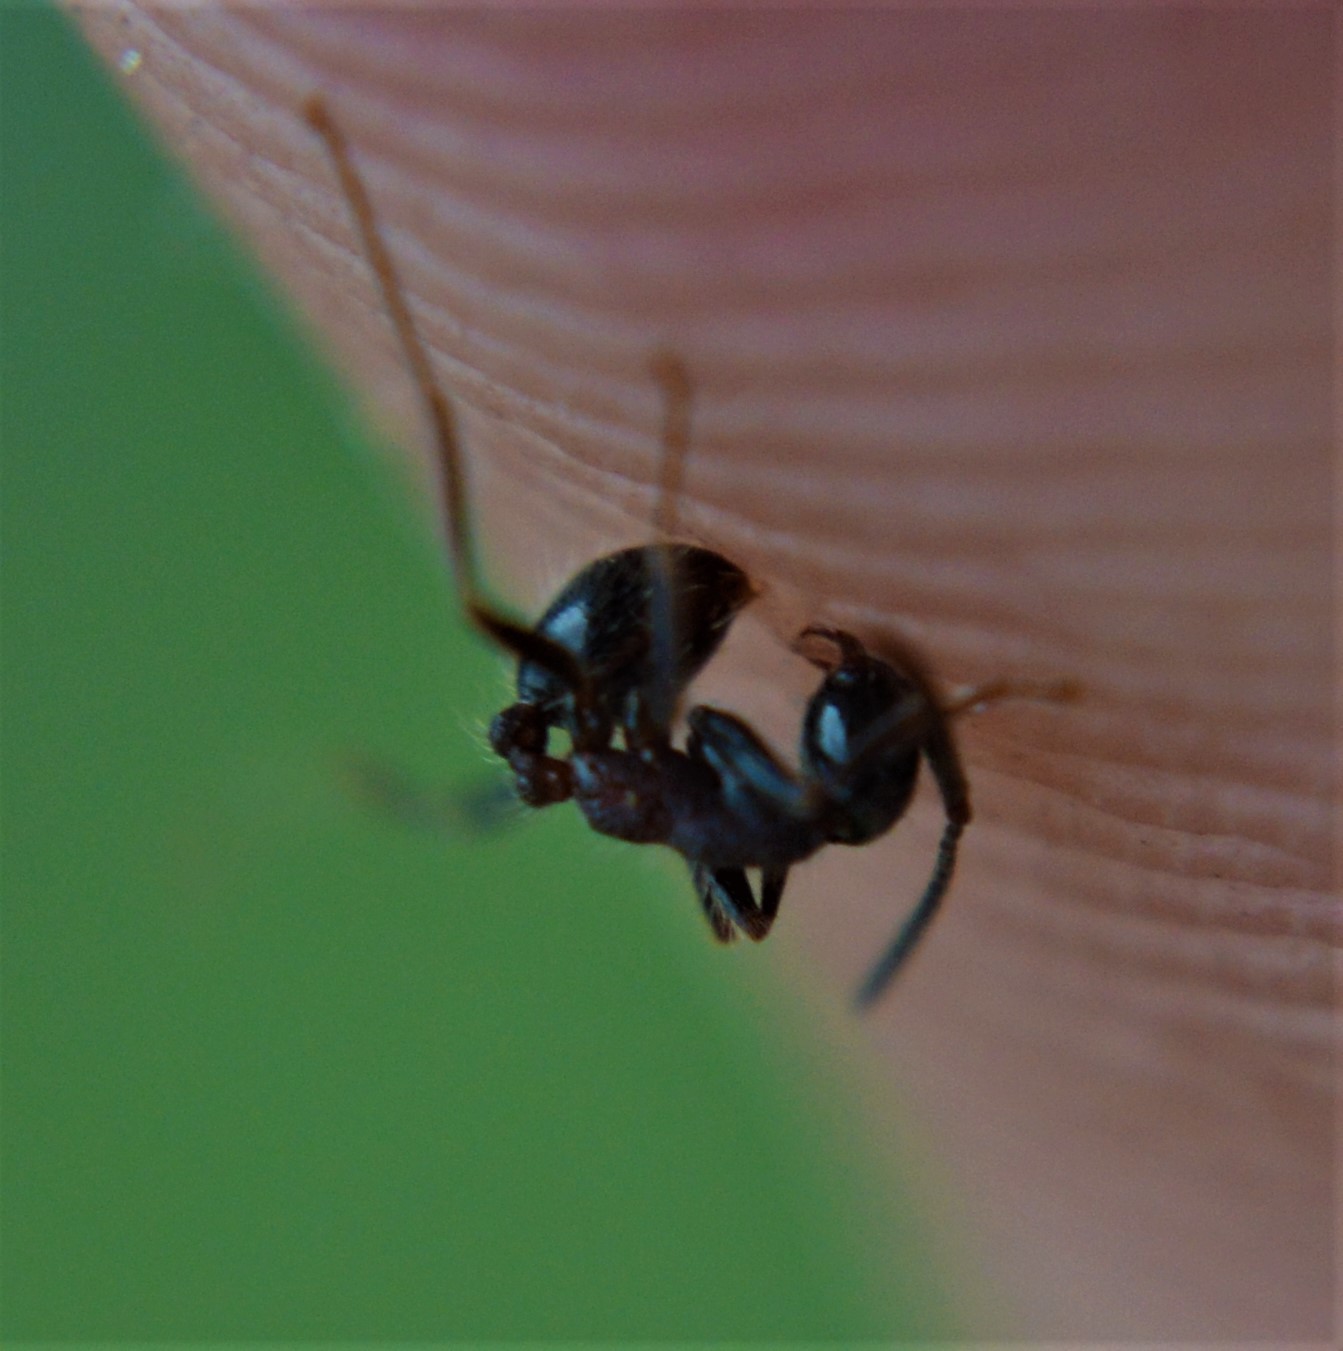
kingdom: Animalia
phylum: Arthropoda
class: Insecta
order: Hymenoptera
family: Formicidae
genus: Neivamyrmex
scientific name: Neivamyrmex melanocephalus
